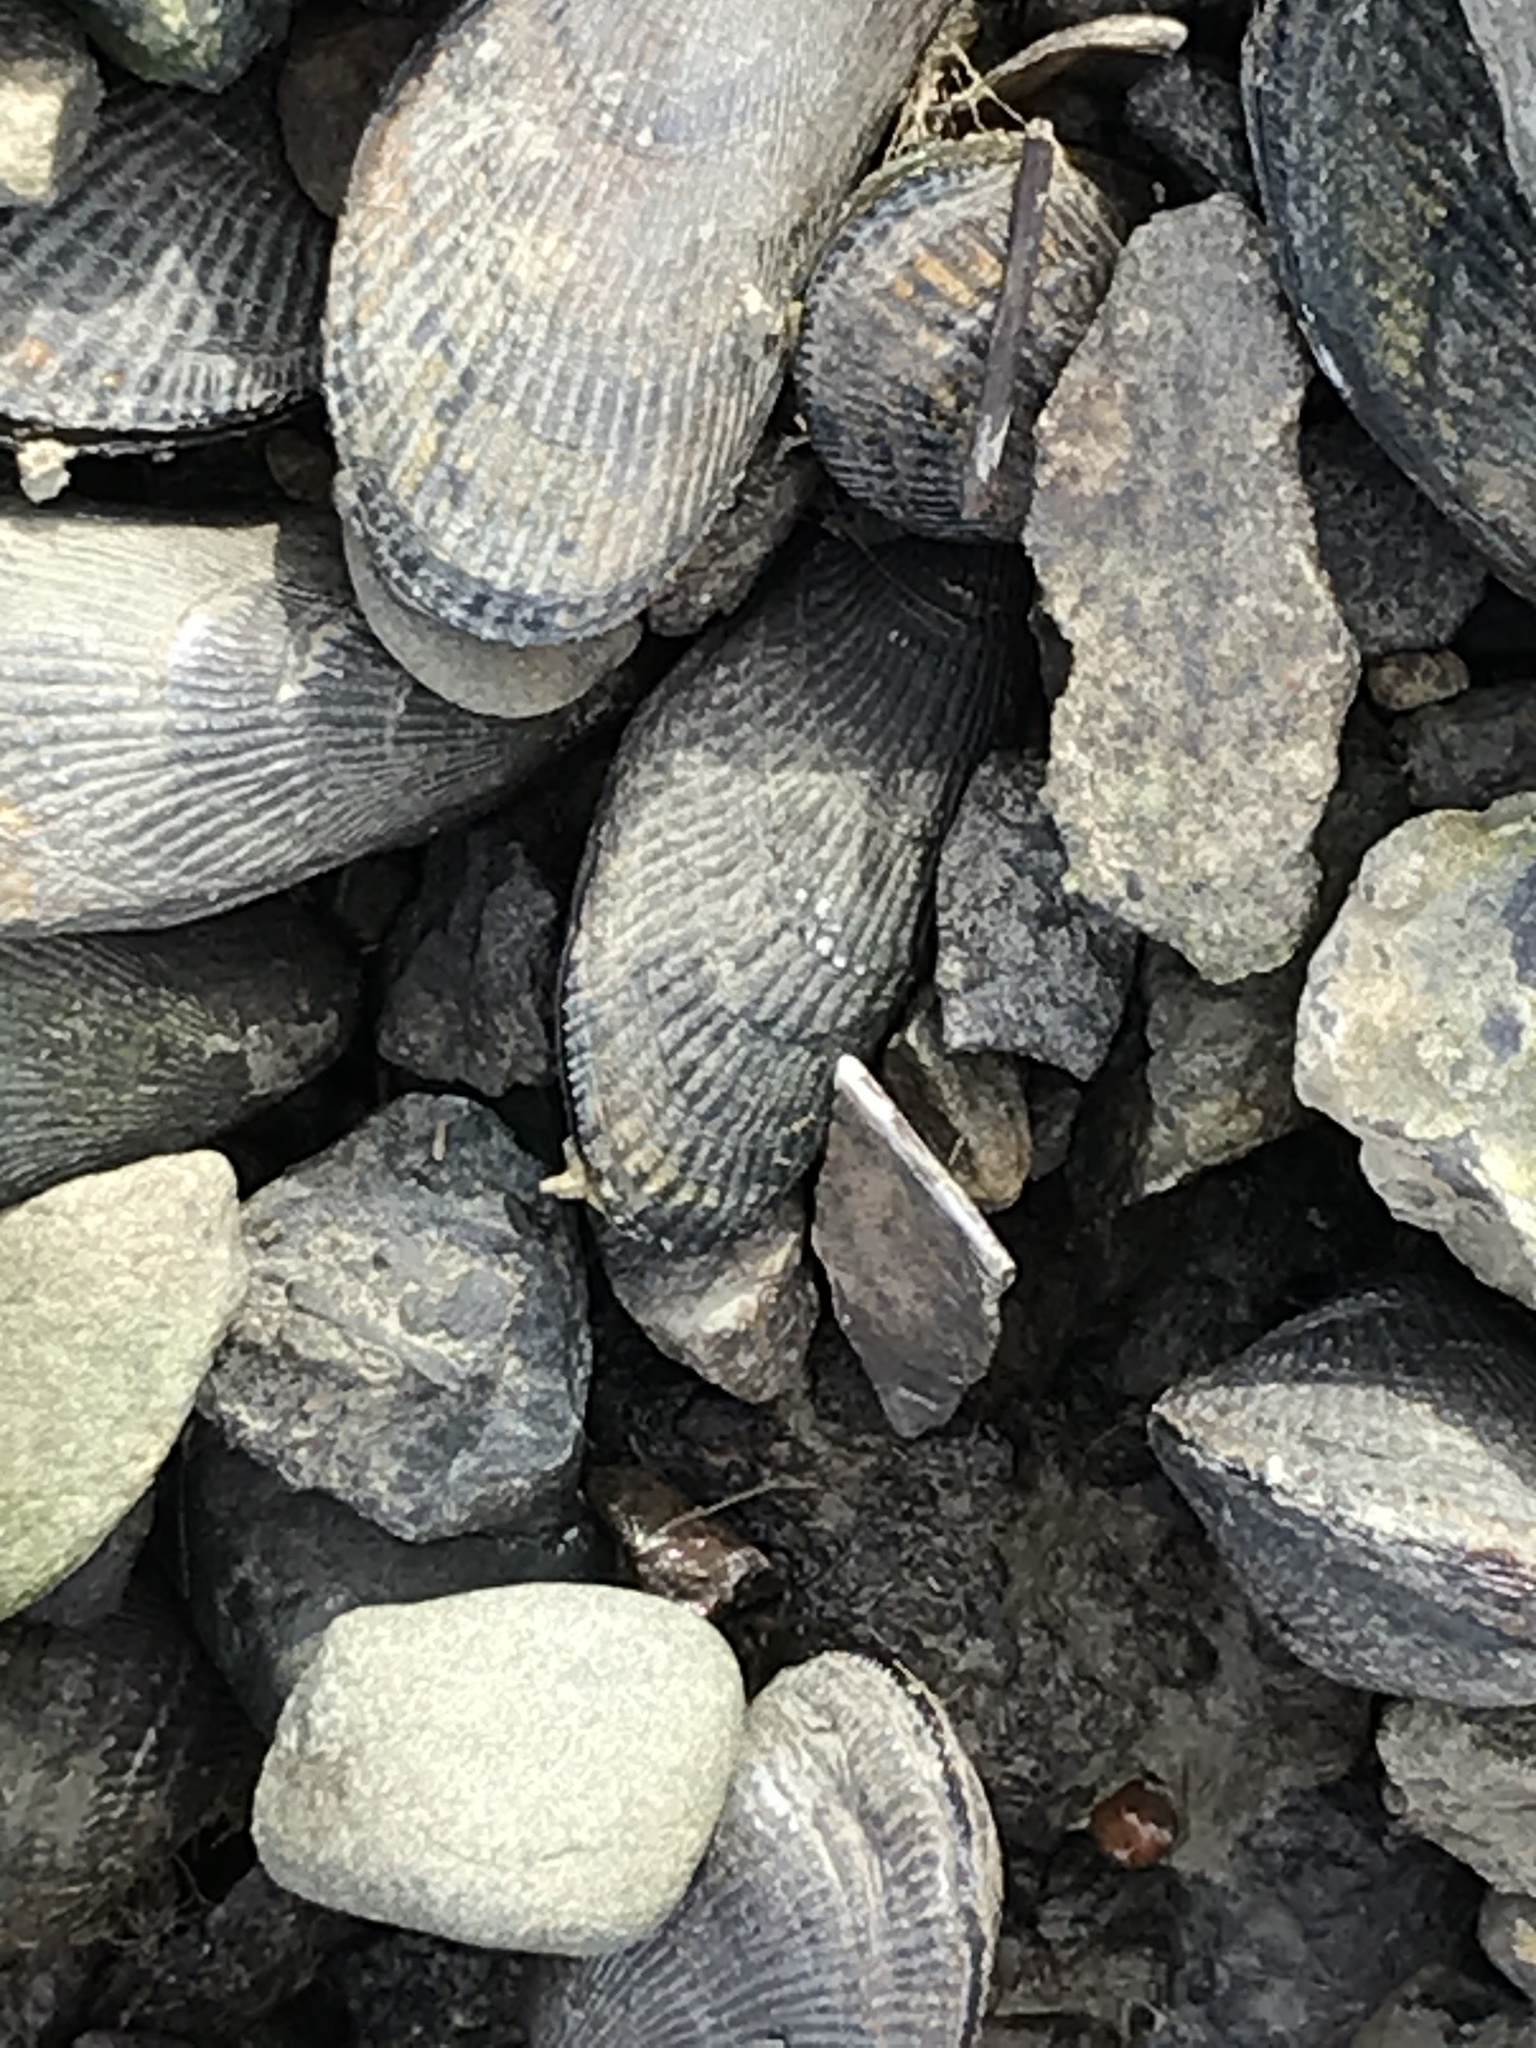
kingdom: Animalia
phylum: Mollusca
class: Bivalvia
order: Mytilida
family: Mytilidae
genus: Geukensia
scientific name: Geukensia demissa
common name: Ribbed mussel
